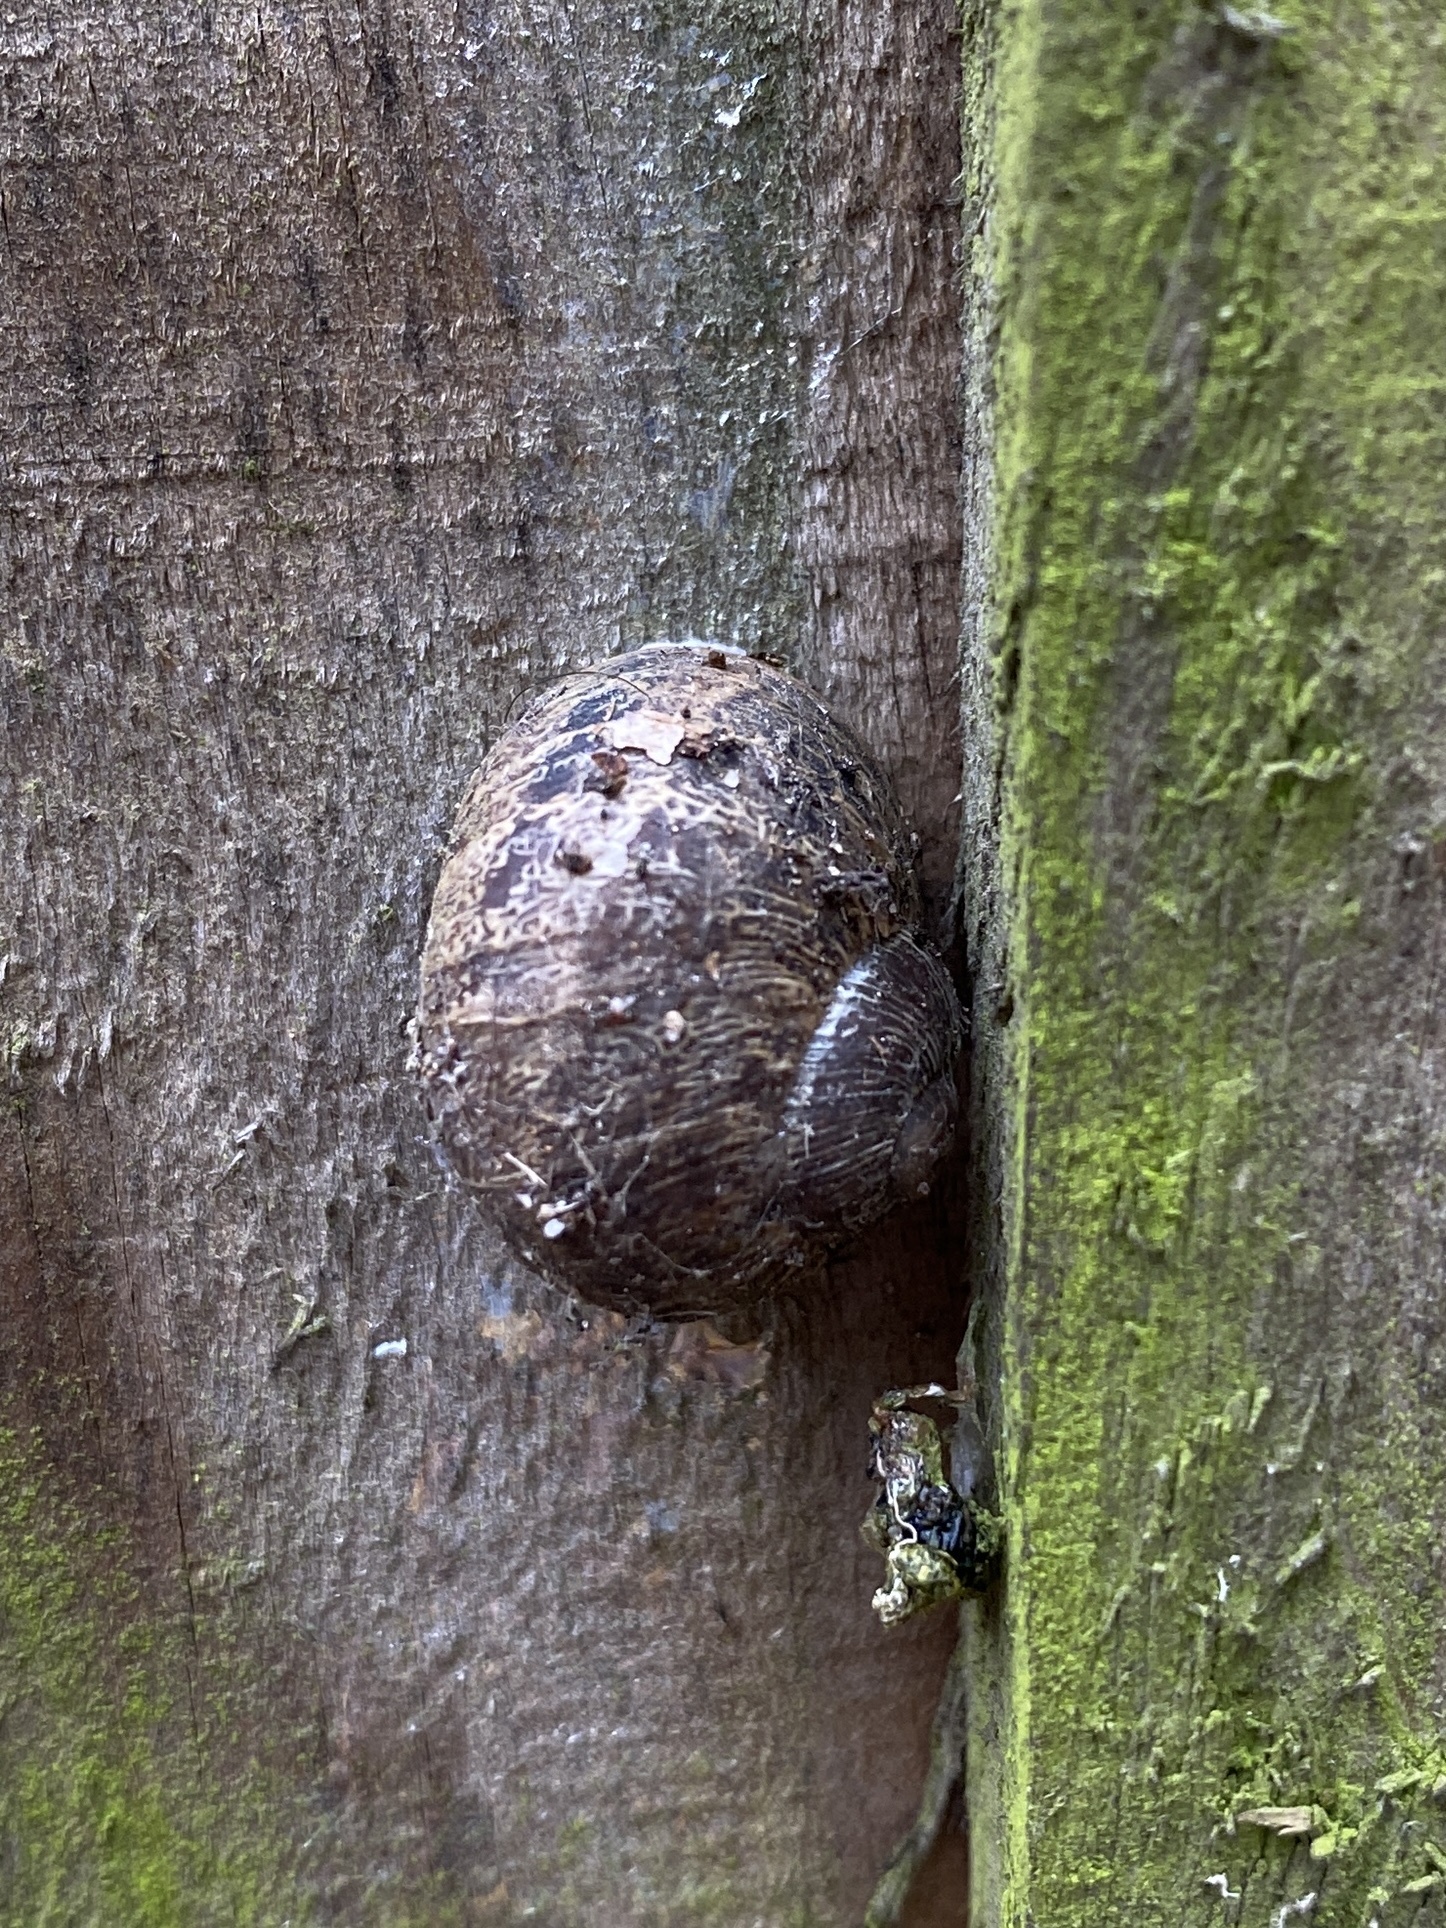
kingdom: Animalia
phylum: Mollusca
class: Gastropoda
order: Stylommatophora
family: Helicidae
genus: Cornu
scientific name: Cornu aspersum
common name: Brown garden snail
